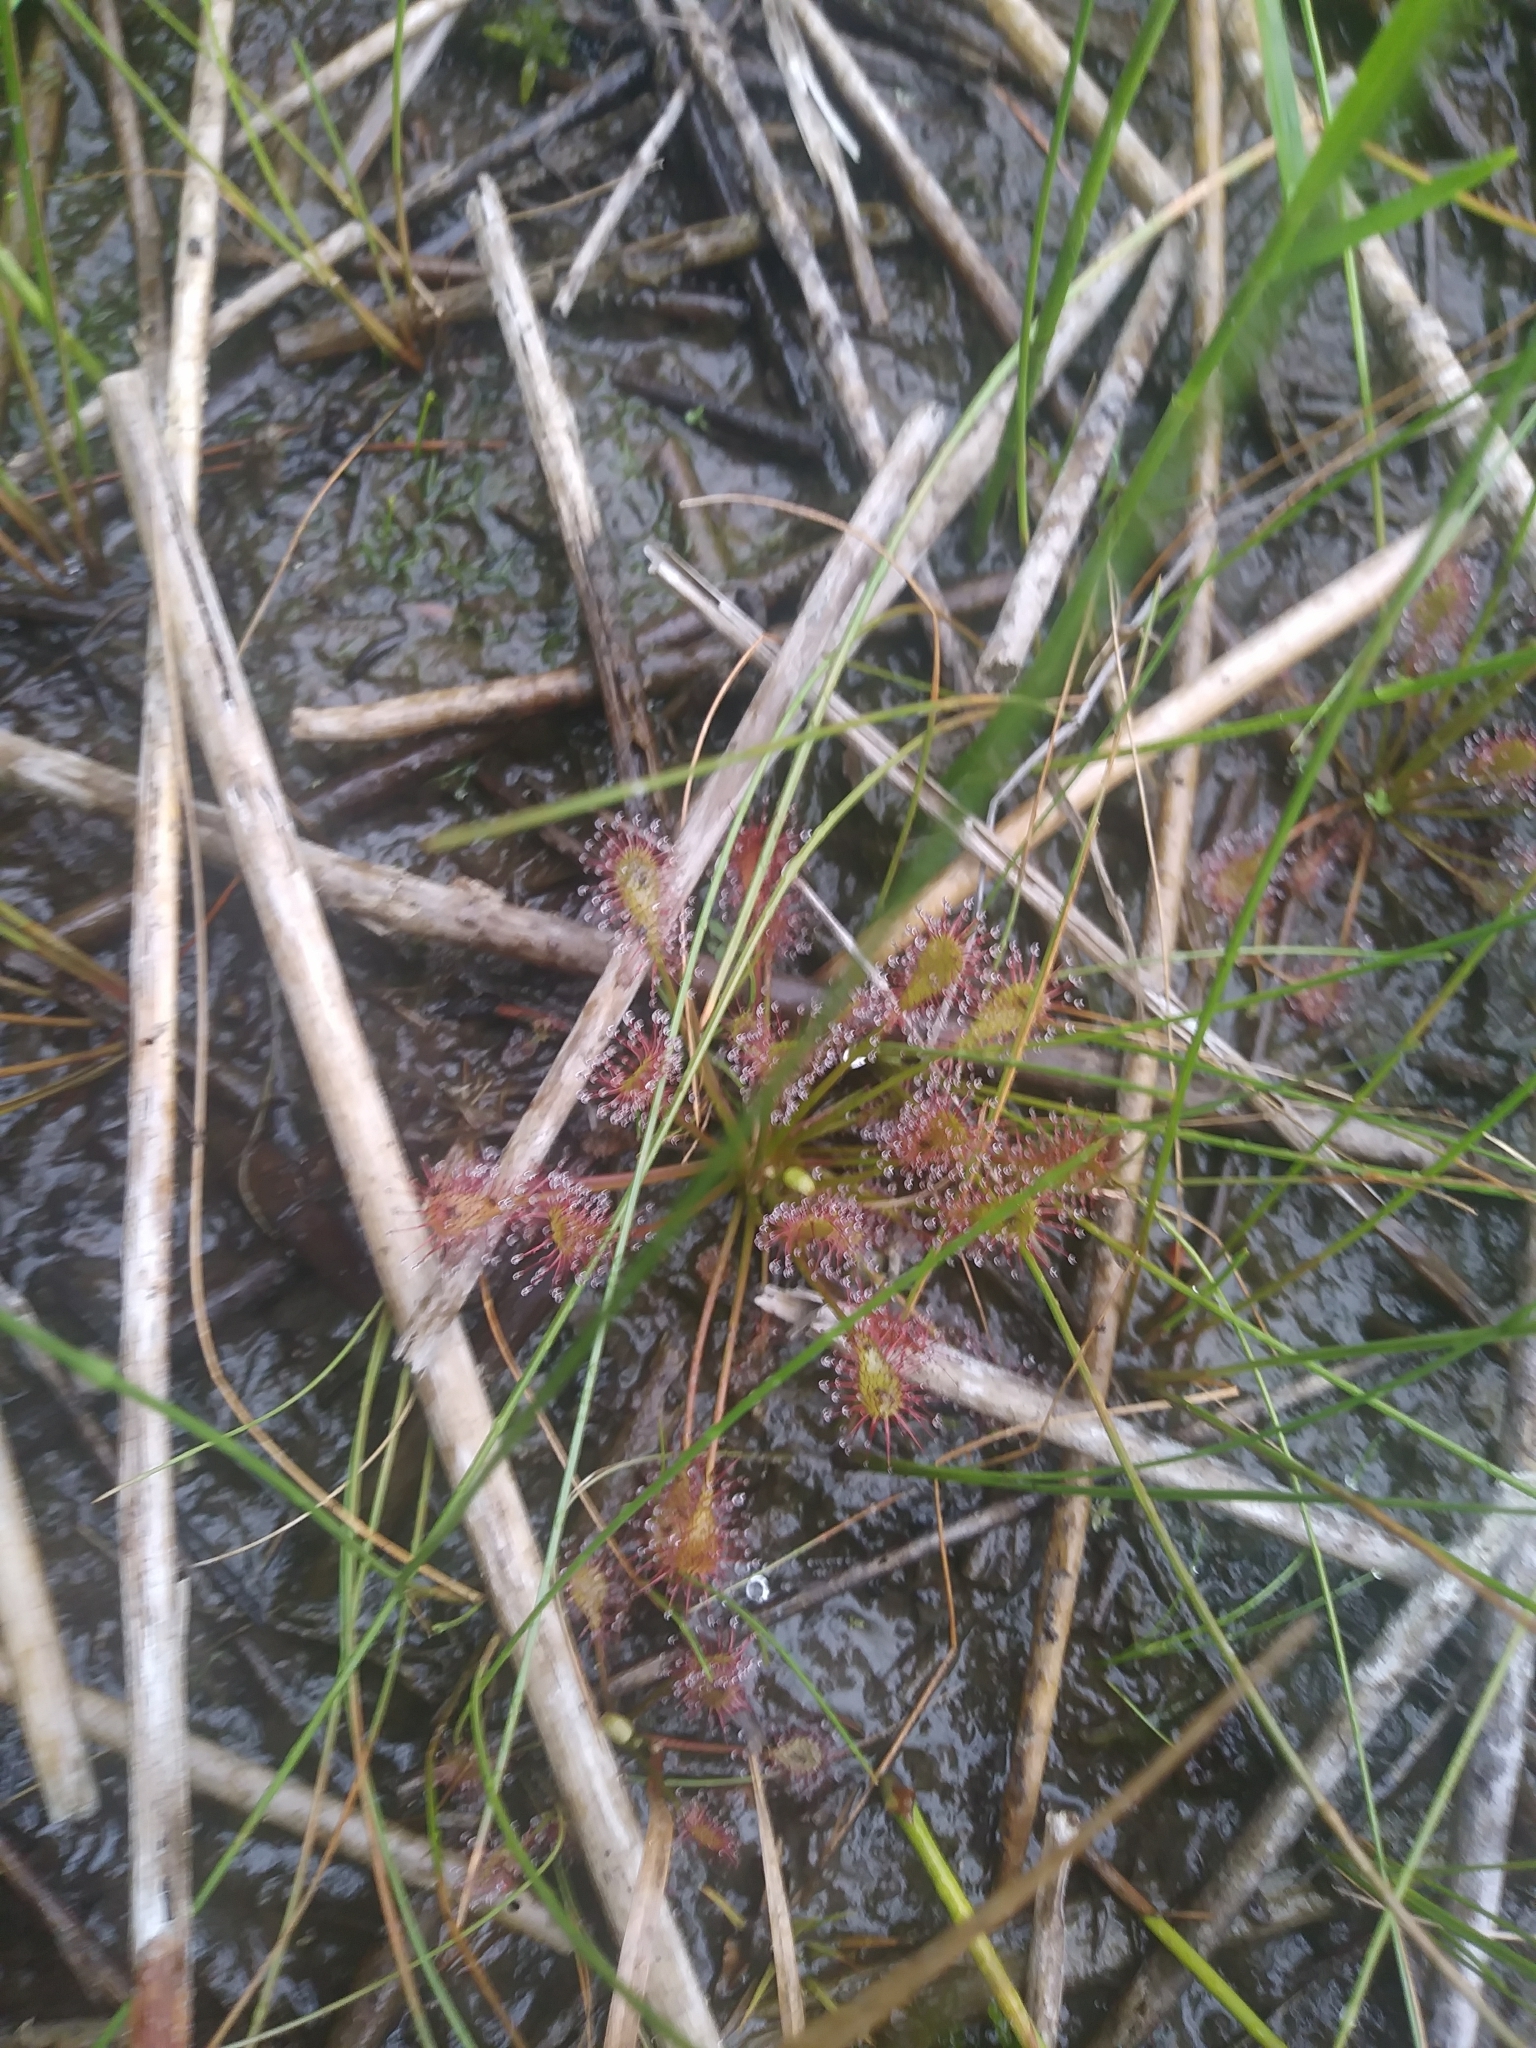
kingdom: Plantae
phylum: Tracheophyta
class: Magnoliopsida
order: Caryophyllales
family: Droseraceae
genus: Drosera
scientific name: Drosera intermedia
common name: Oblong-leaved sundew
